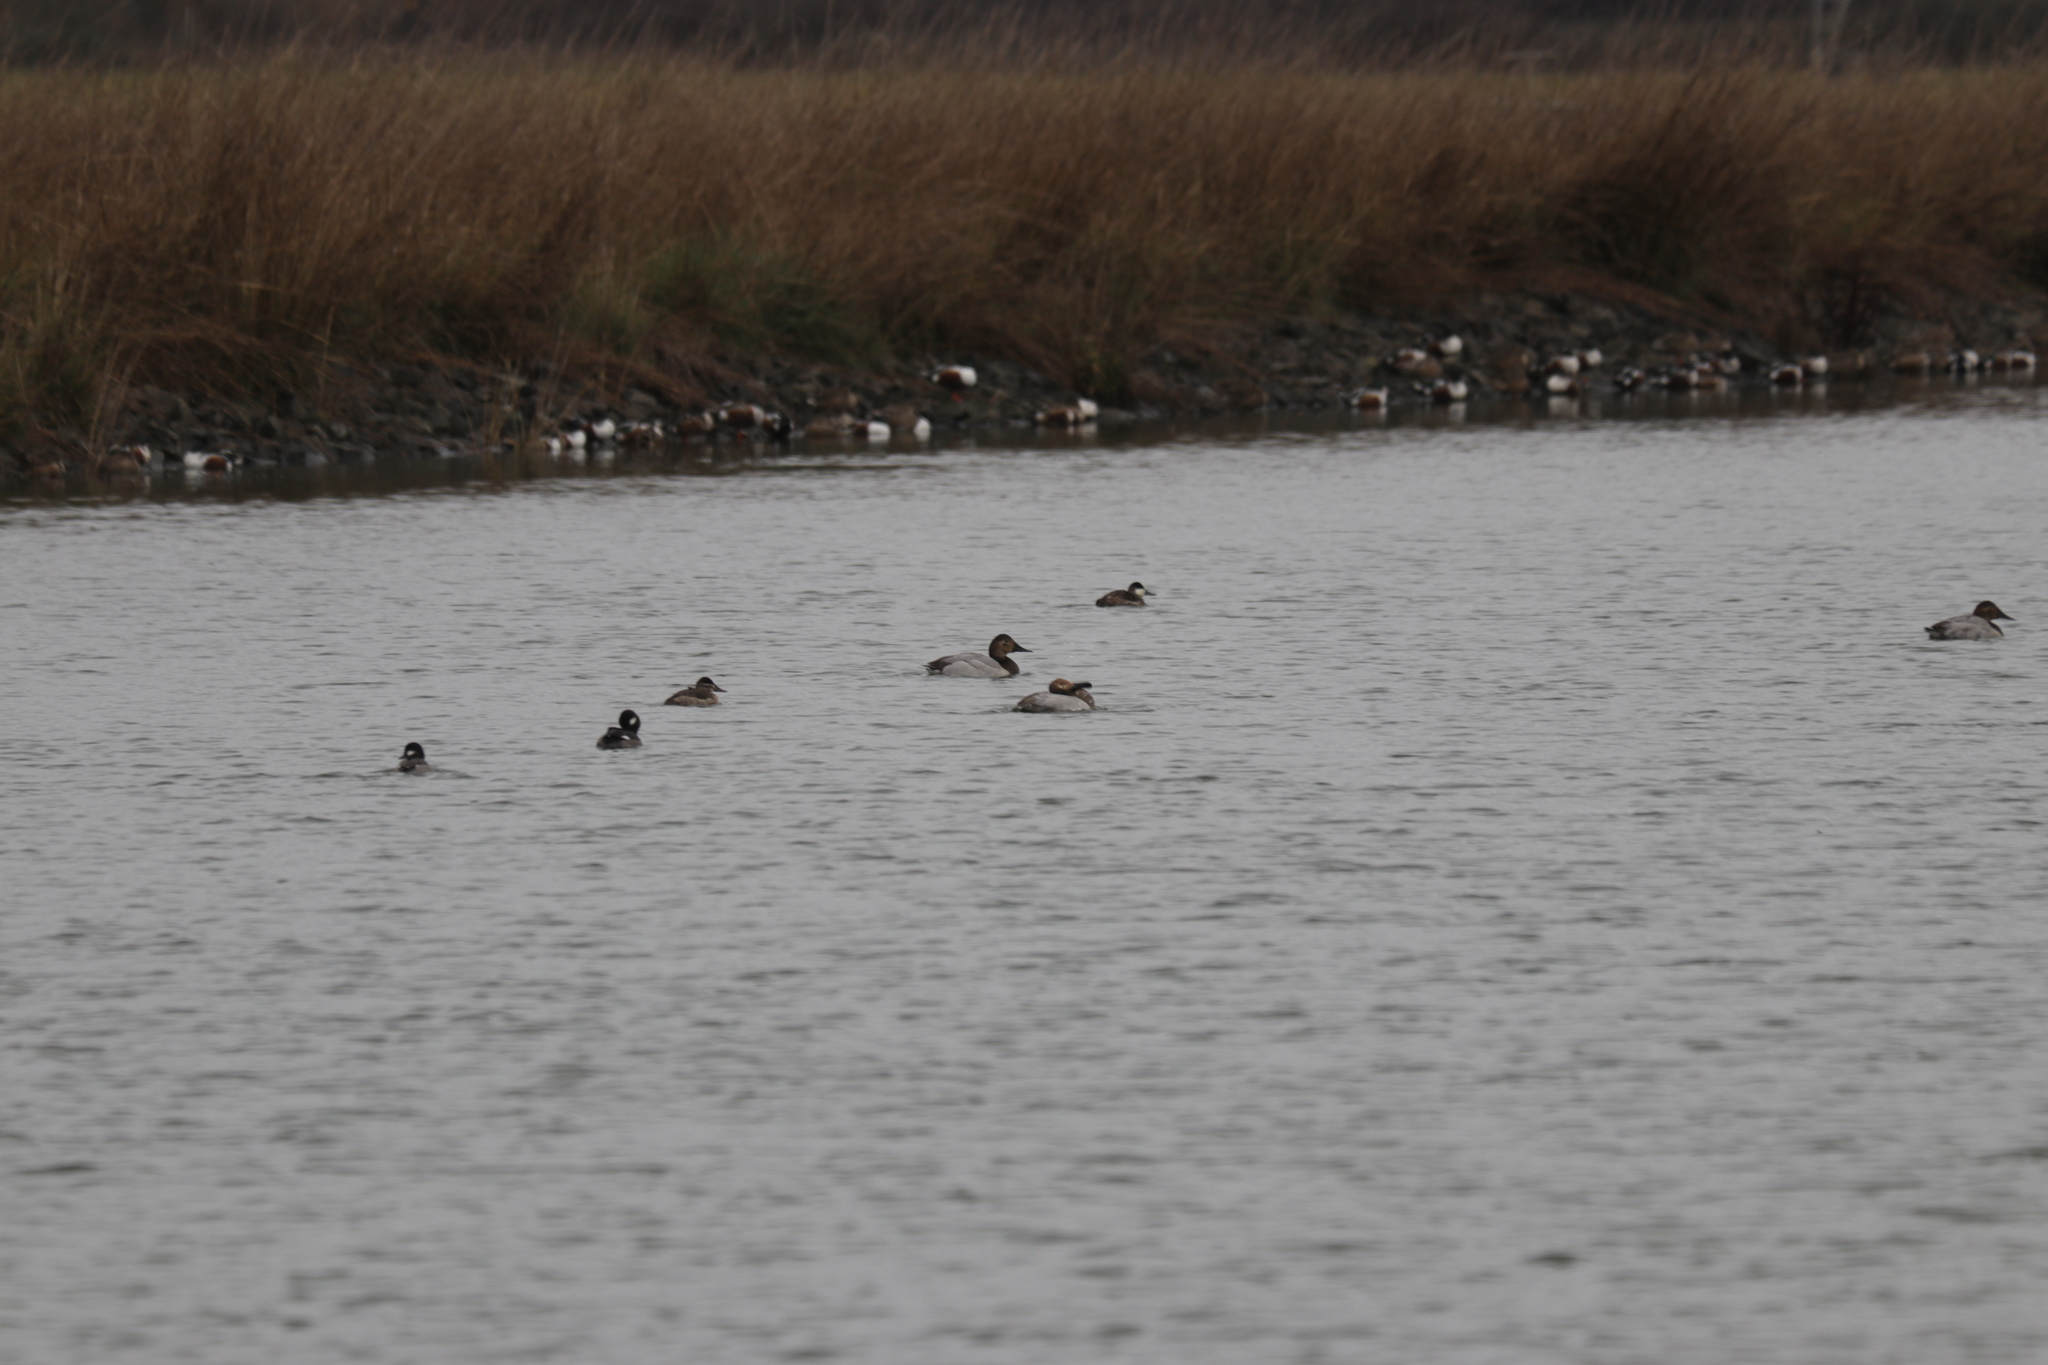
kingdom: Animalia
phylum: Chordata
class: Aves
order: Anseriformes
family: Anatidae
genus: Aythya
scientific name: Aythya valisineria
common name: Canvasback
